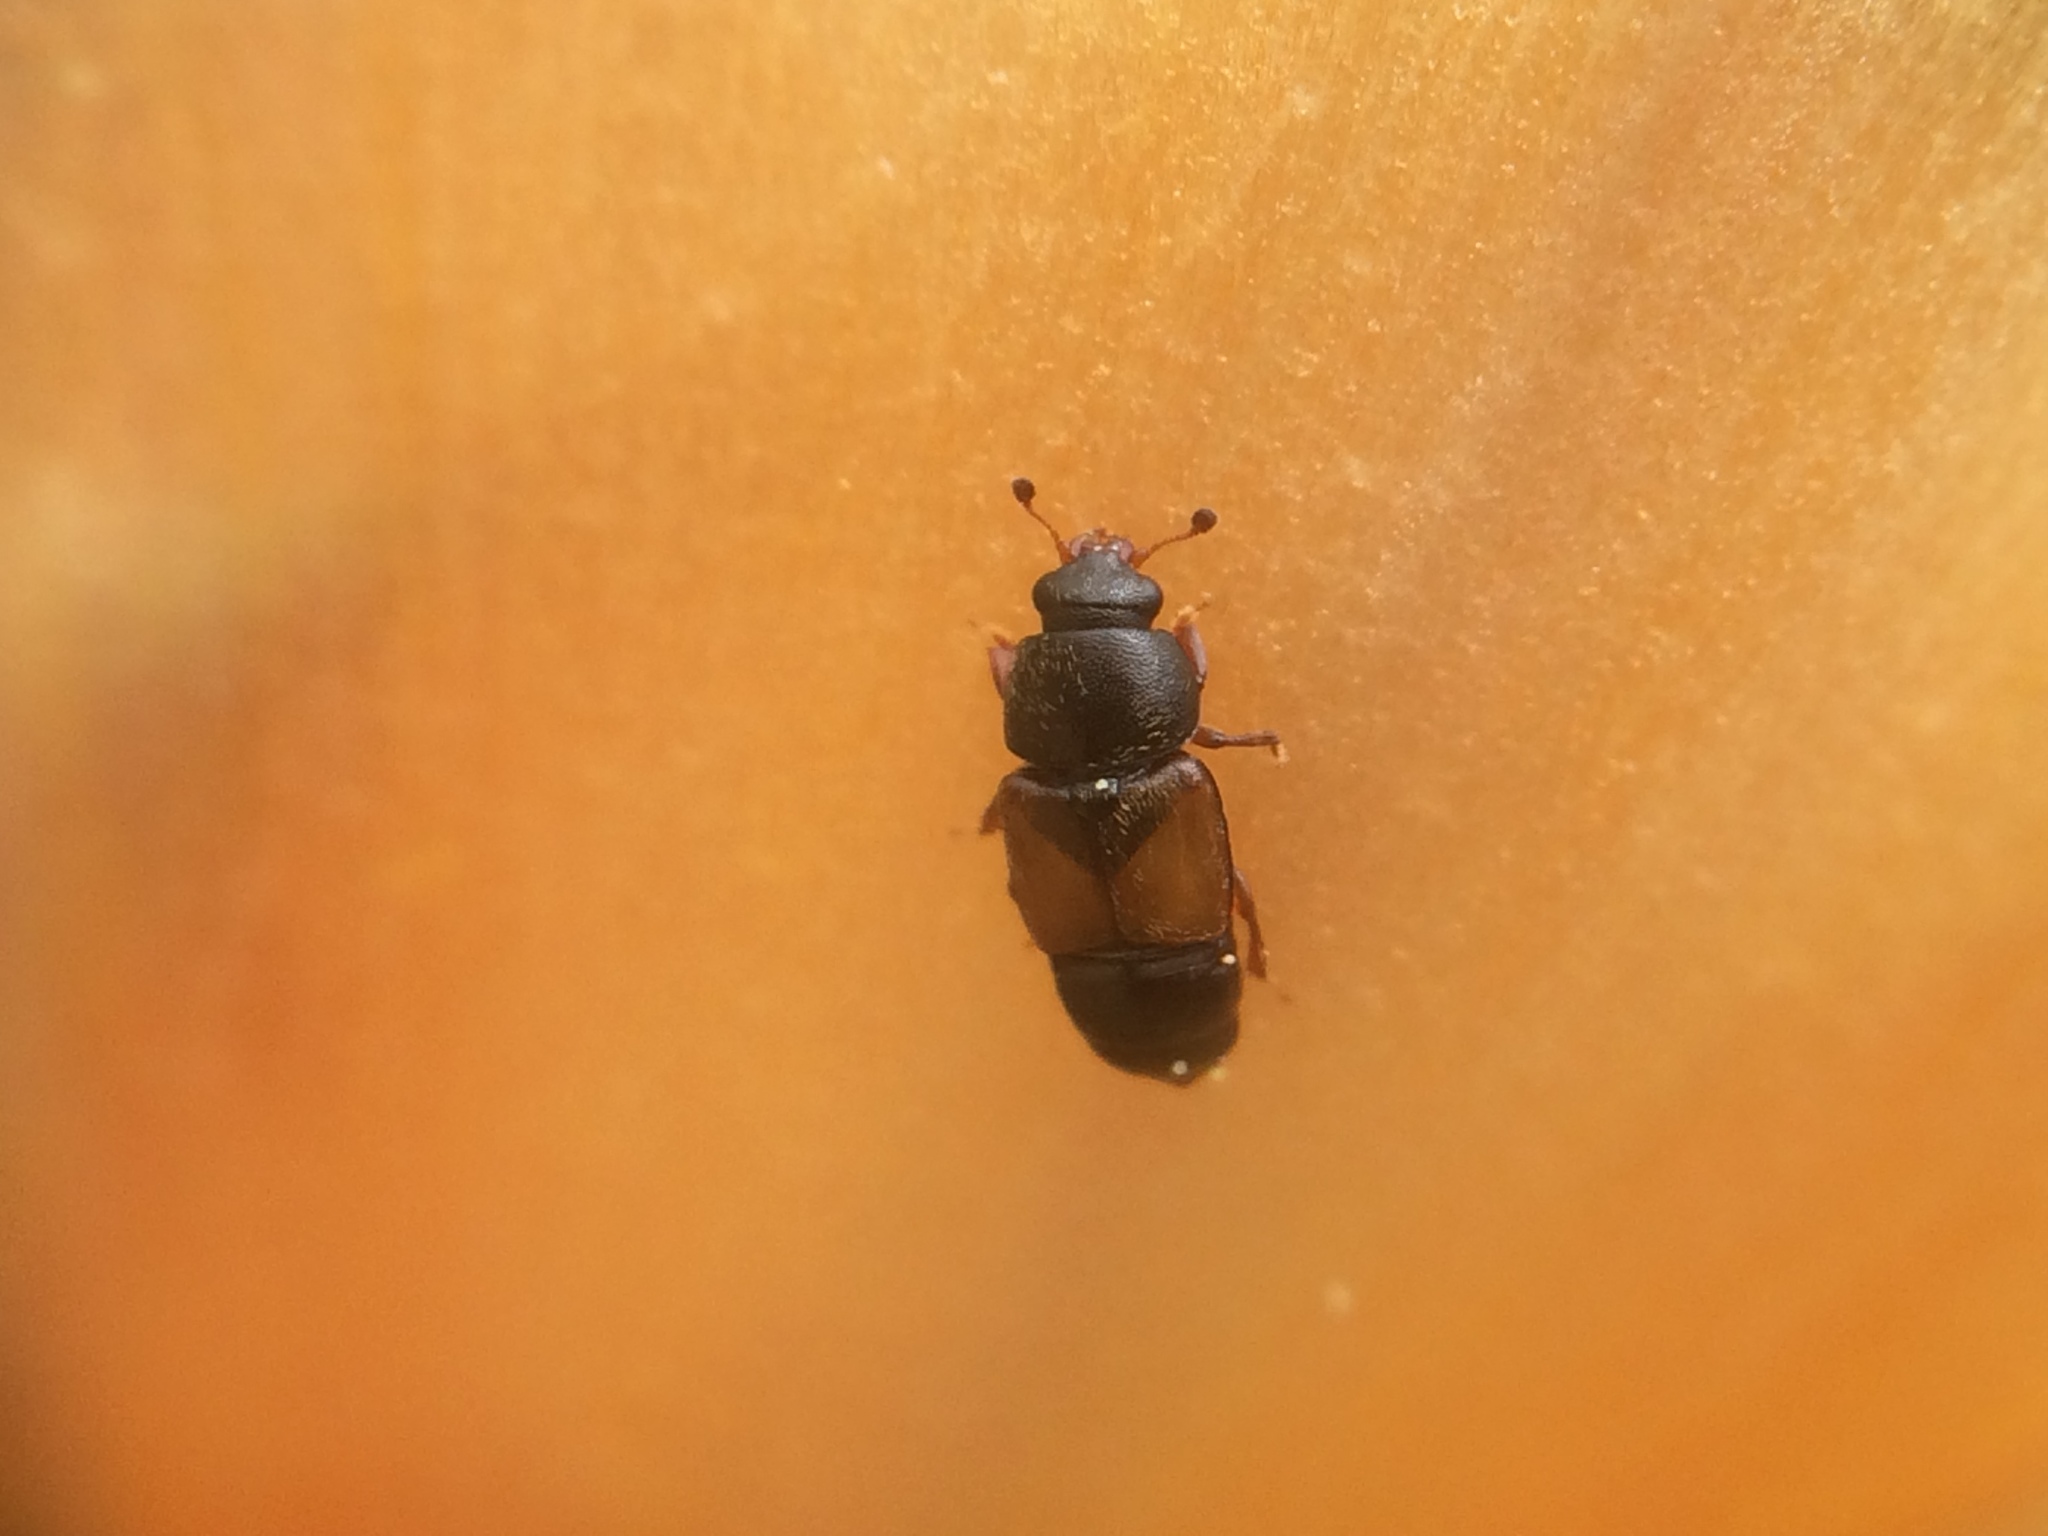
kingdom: Animalia
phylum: Arthropoda
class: Insecta
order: Coleoptera
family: Nitidulidae
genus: Nitops
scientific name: Nitops pallipennis
